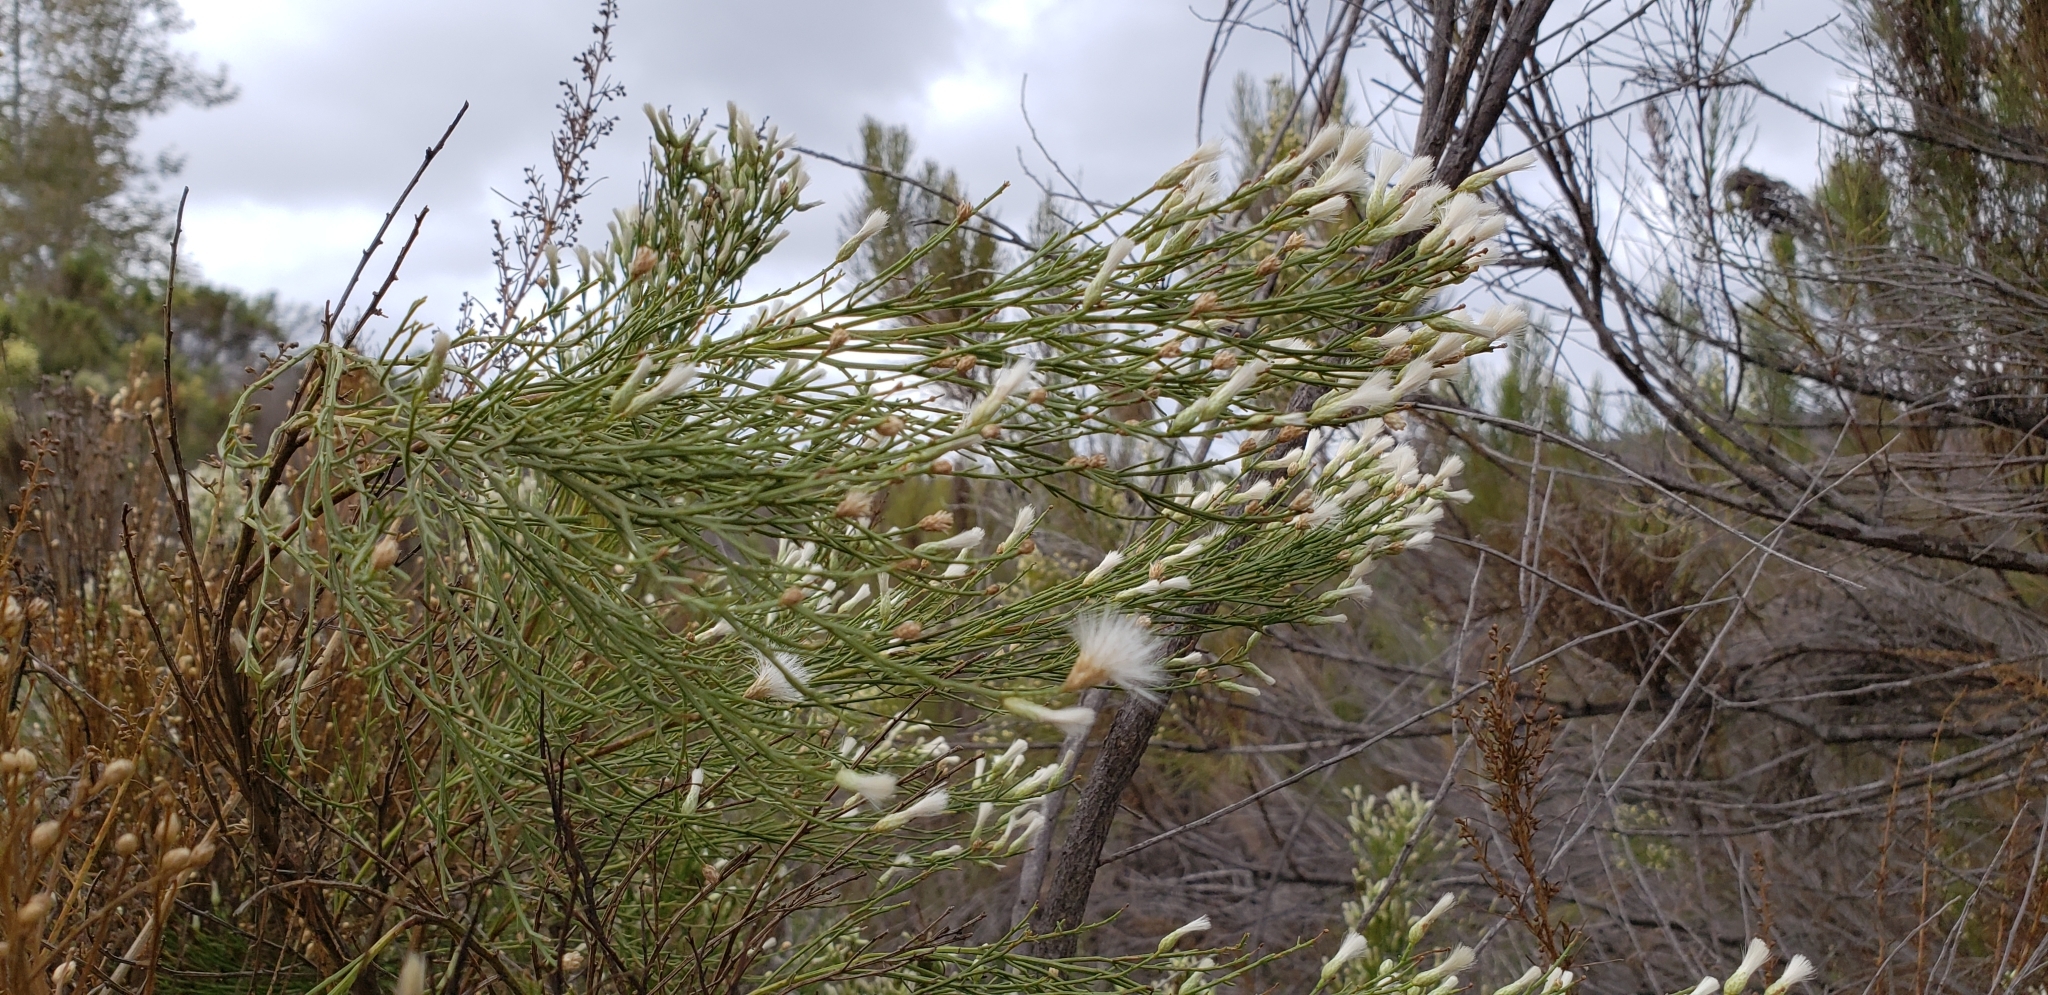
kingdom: Plantae
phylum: Tracheophyta
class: Magnoliopsida
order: Asterales
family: Asteraceae
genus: Baccharis
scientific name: Baccharis sarothroides
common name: Desert-broom
